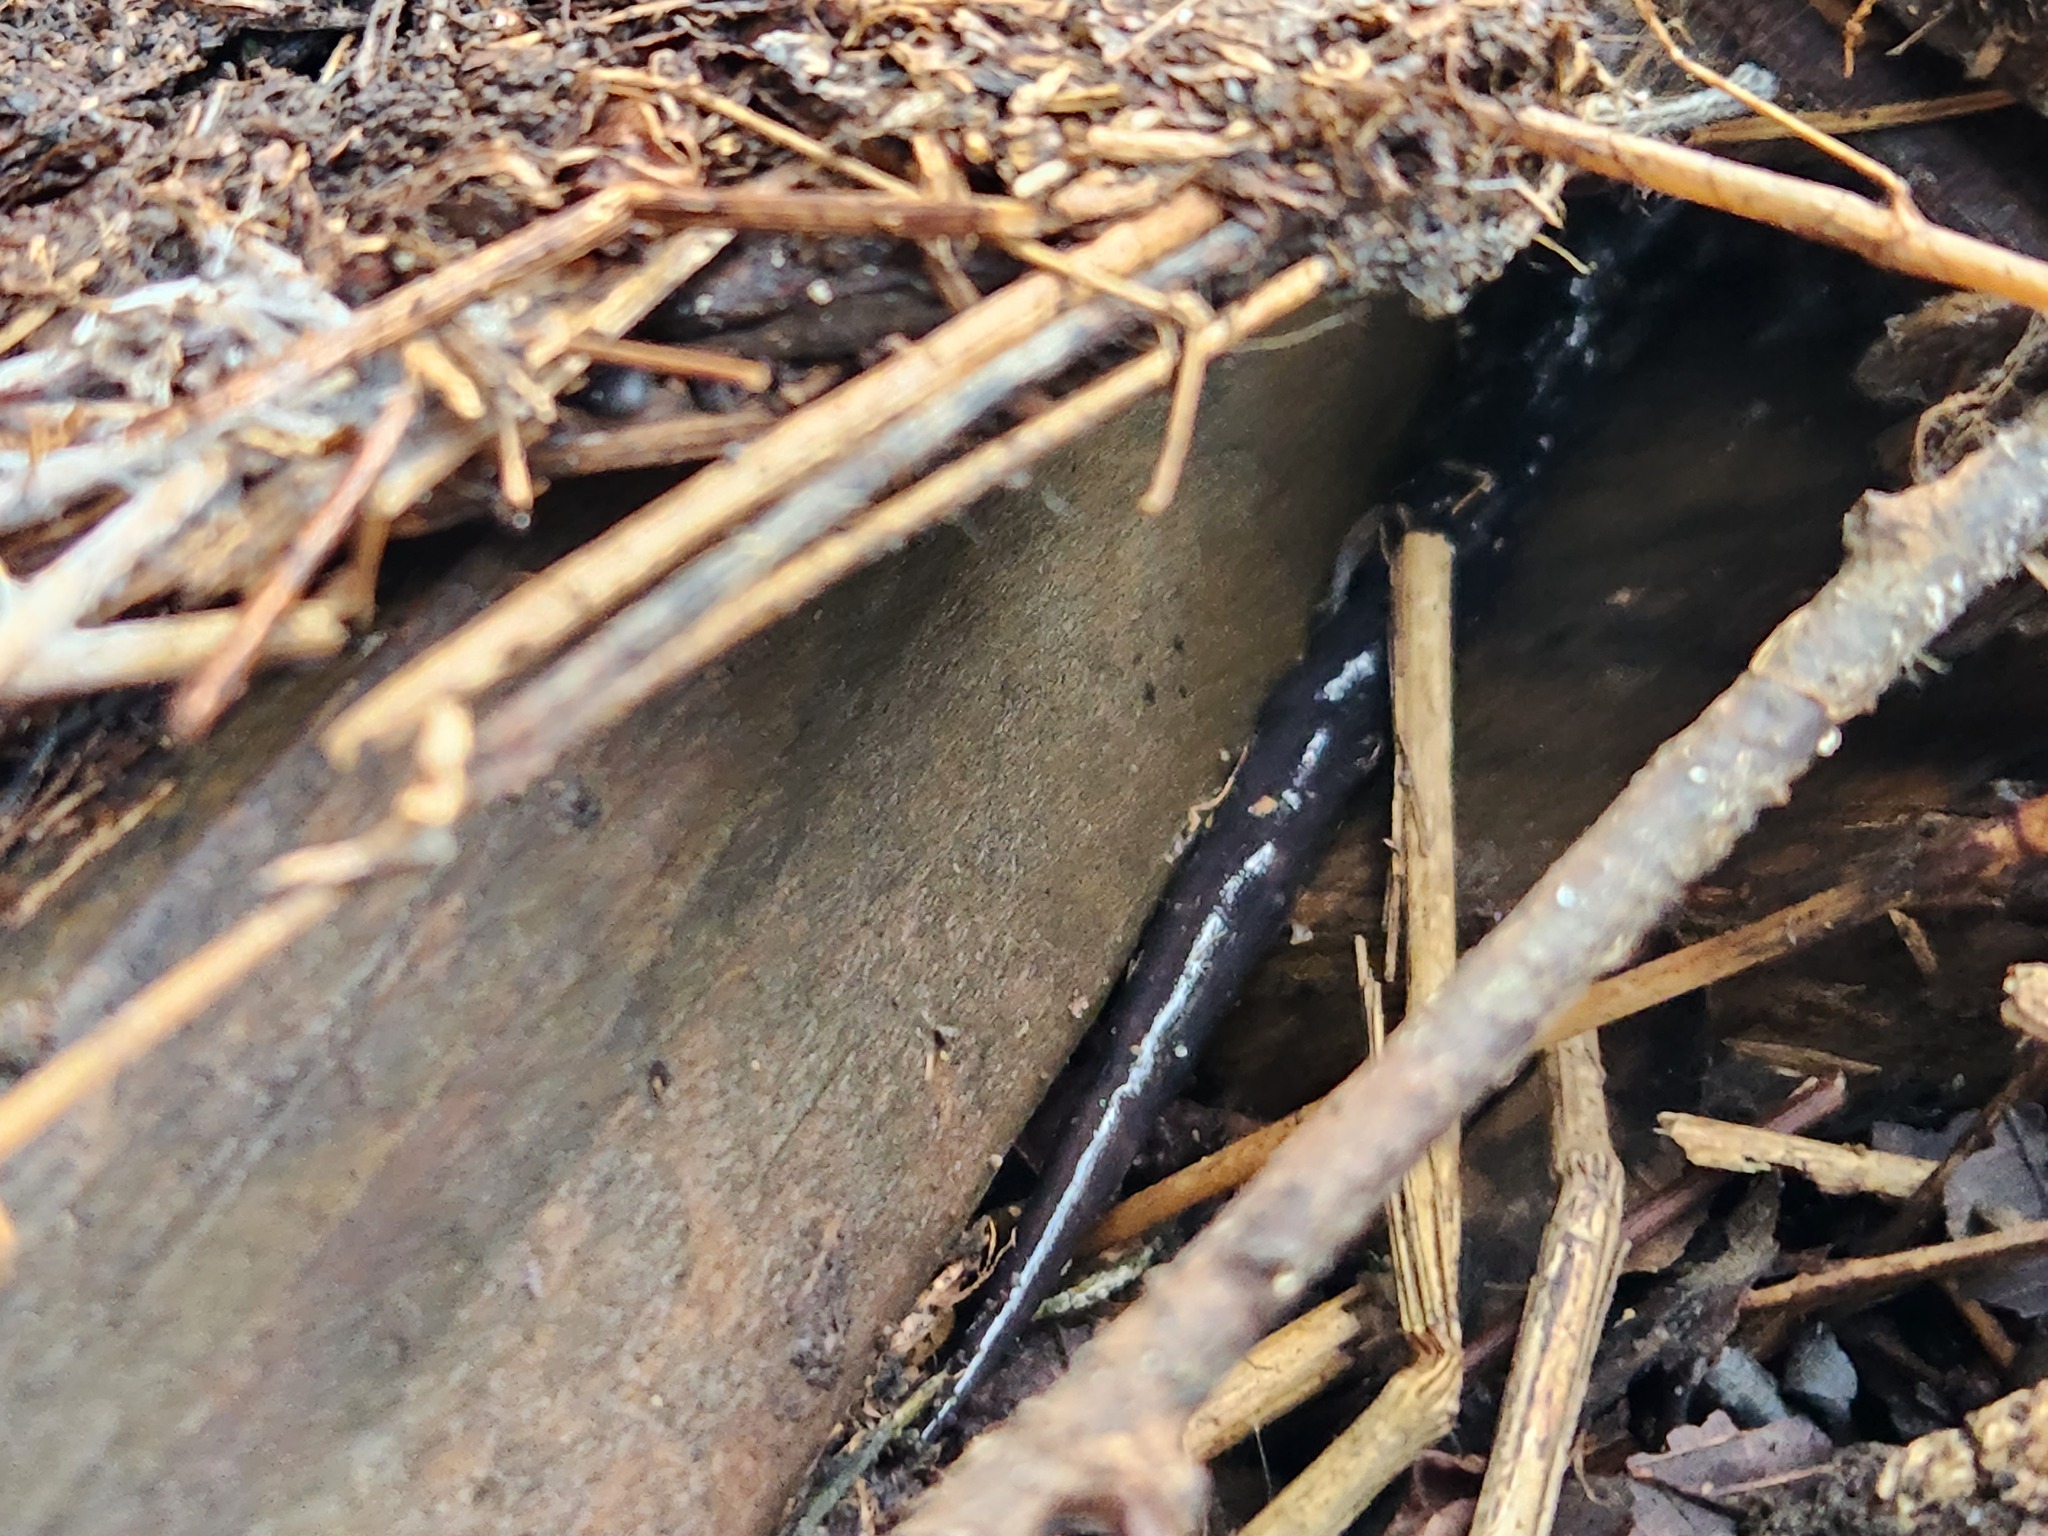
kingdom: Animalia
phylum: Chordata
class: Amphibia
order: Caudata
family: Plethodontidae
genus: Plethodon
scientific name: Plethodon glutinosus
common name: Northern slimy salamander
